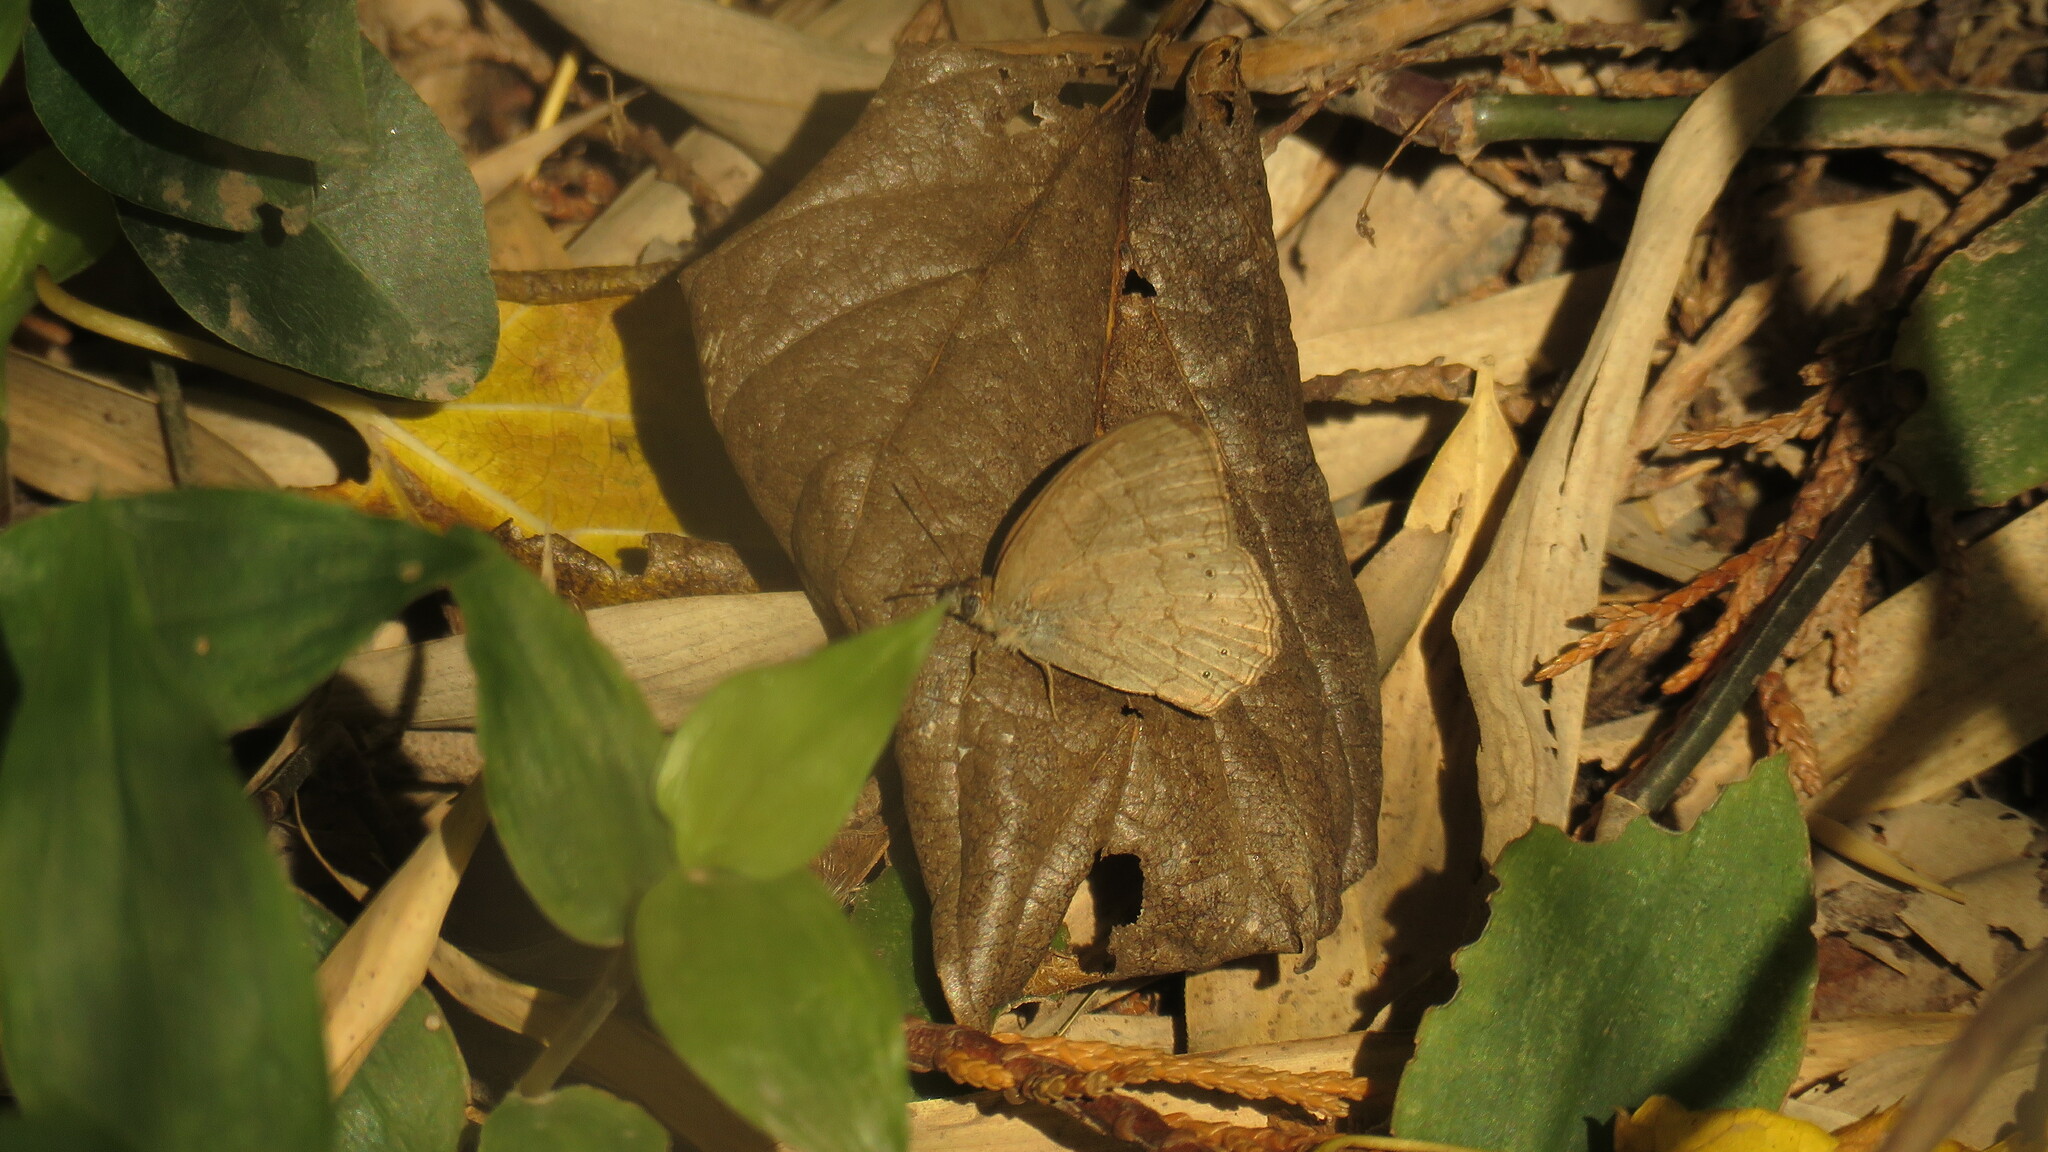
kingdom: Animalia
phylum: Arthropoda
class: Insecta
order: Lepidoptera
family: Nymphalidae
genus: Paryphthimoides
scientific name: Paryphthimoides poltys
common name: Poltys satyr
